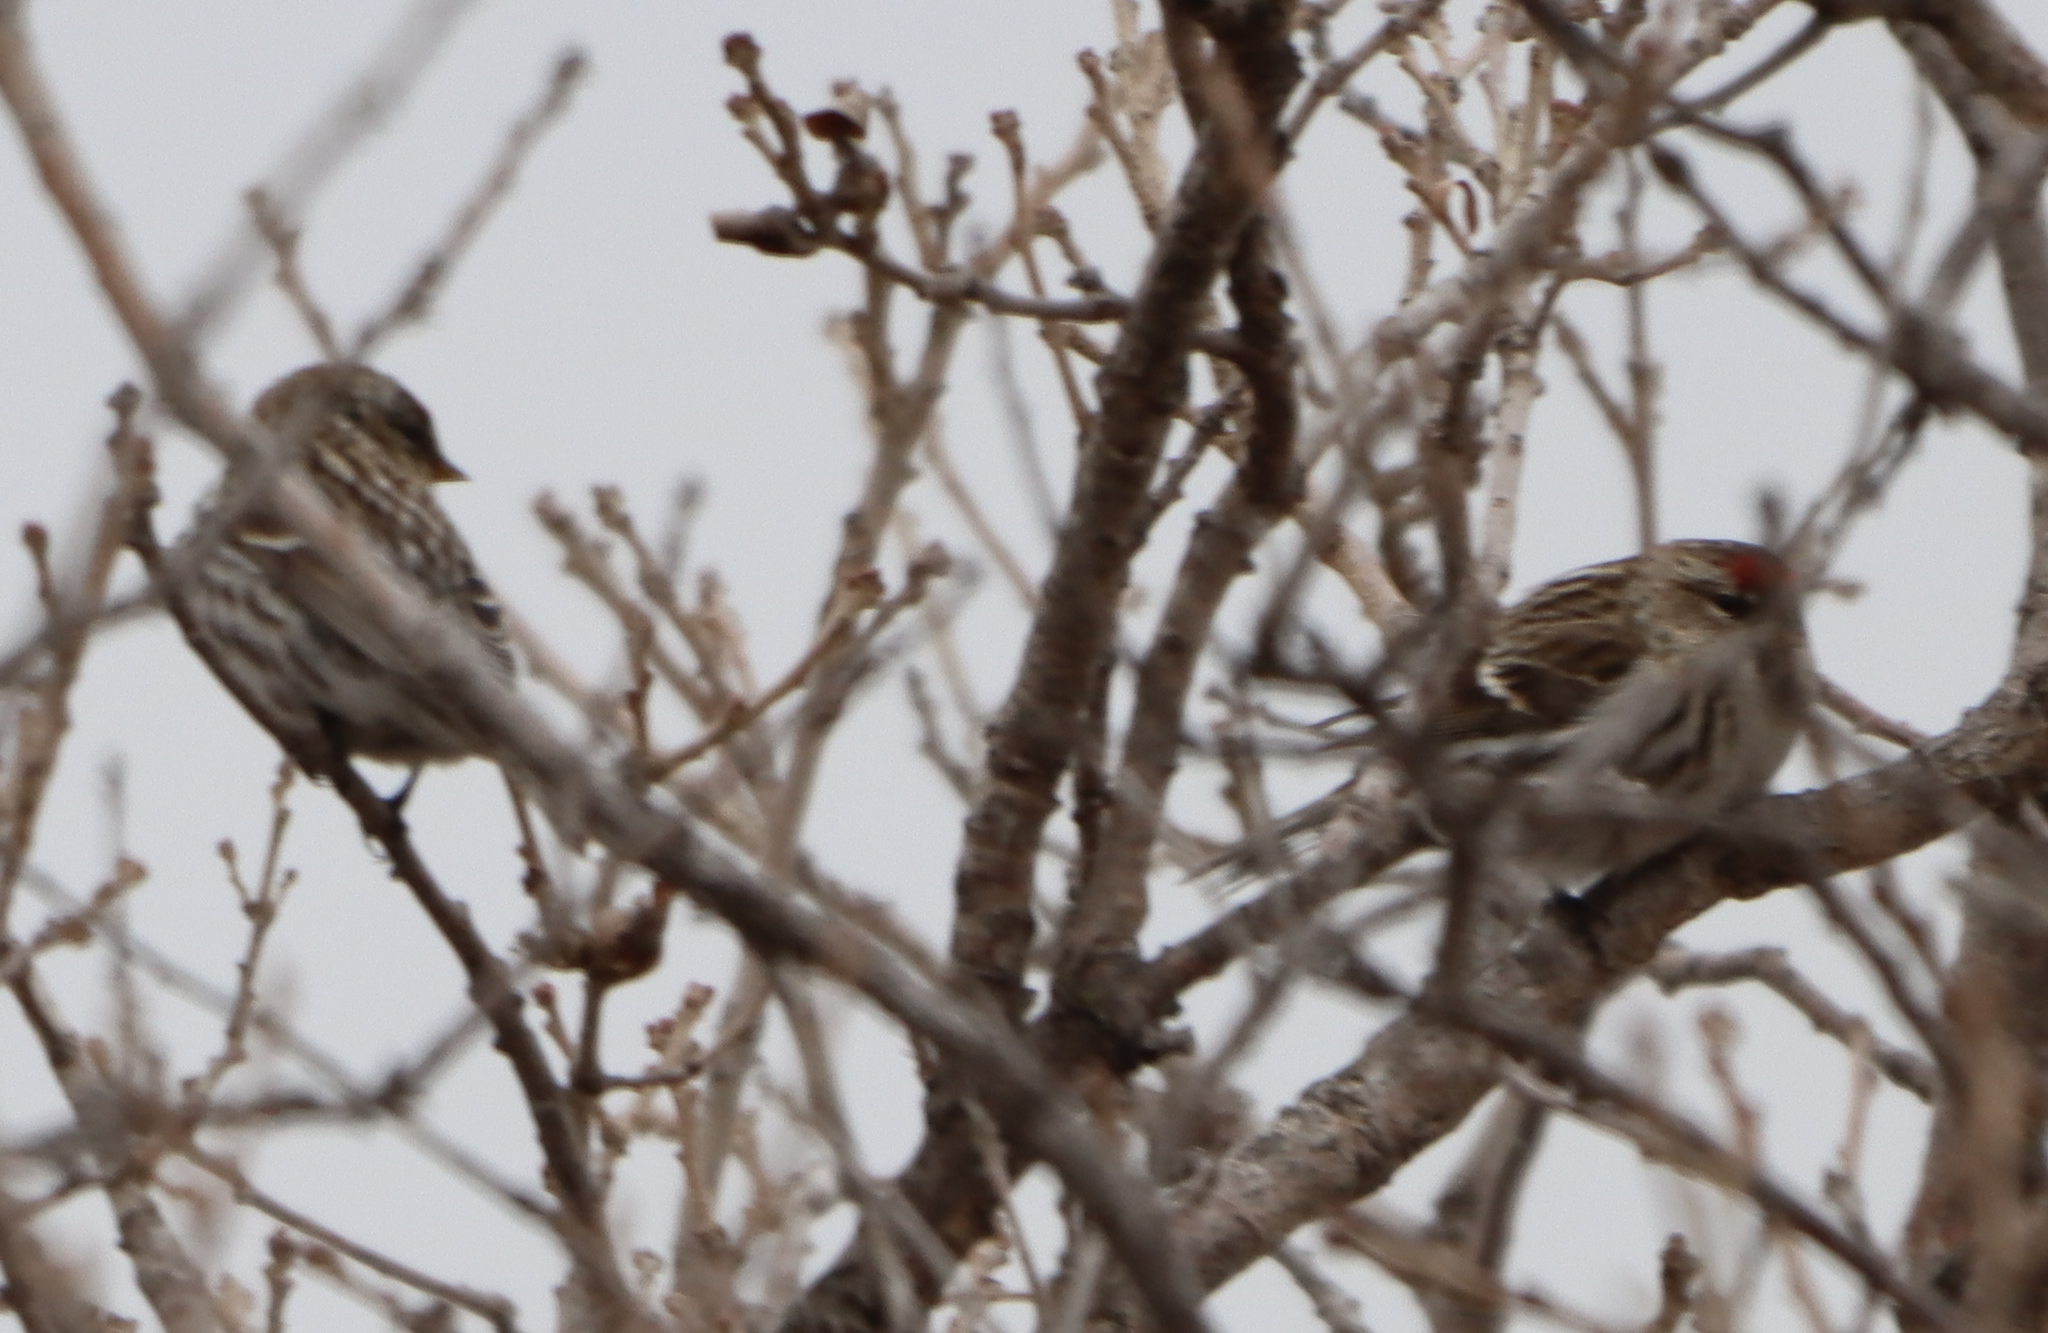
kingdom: Animalia
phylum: Chordata
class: Aves
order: Passeriformes
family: Fringillidae
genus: Acanthis
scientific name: Acanthis flammea
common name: Common redpoll
